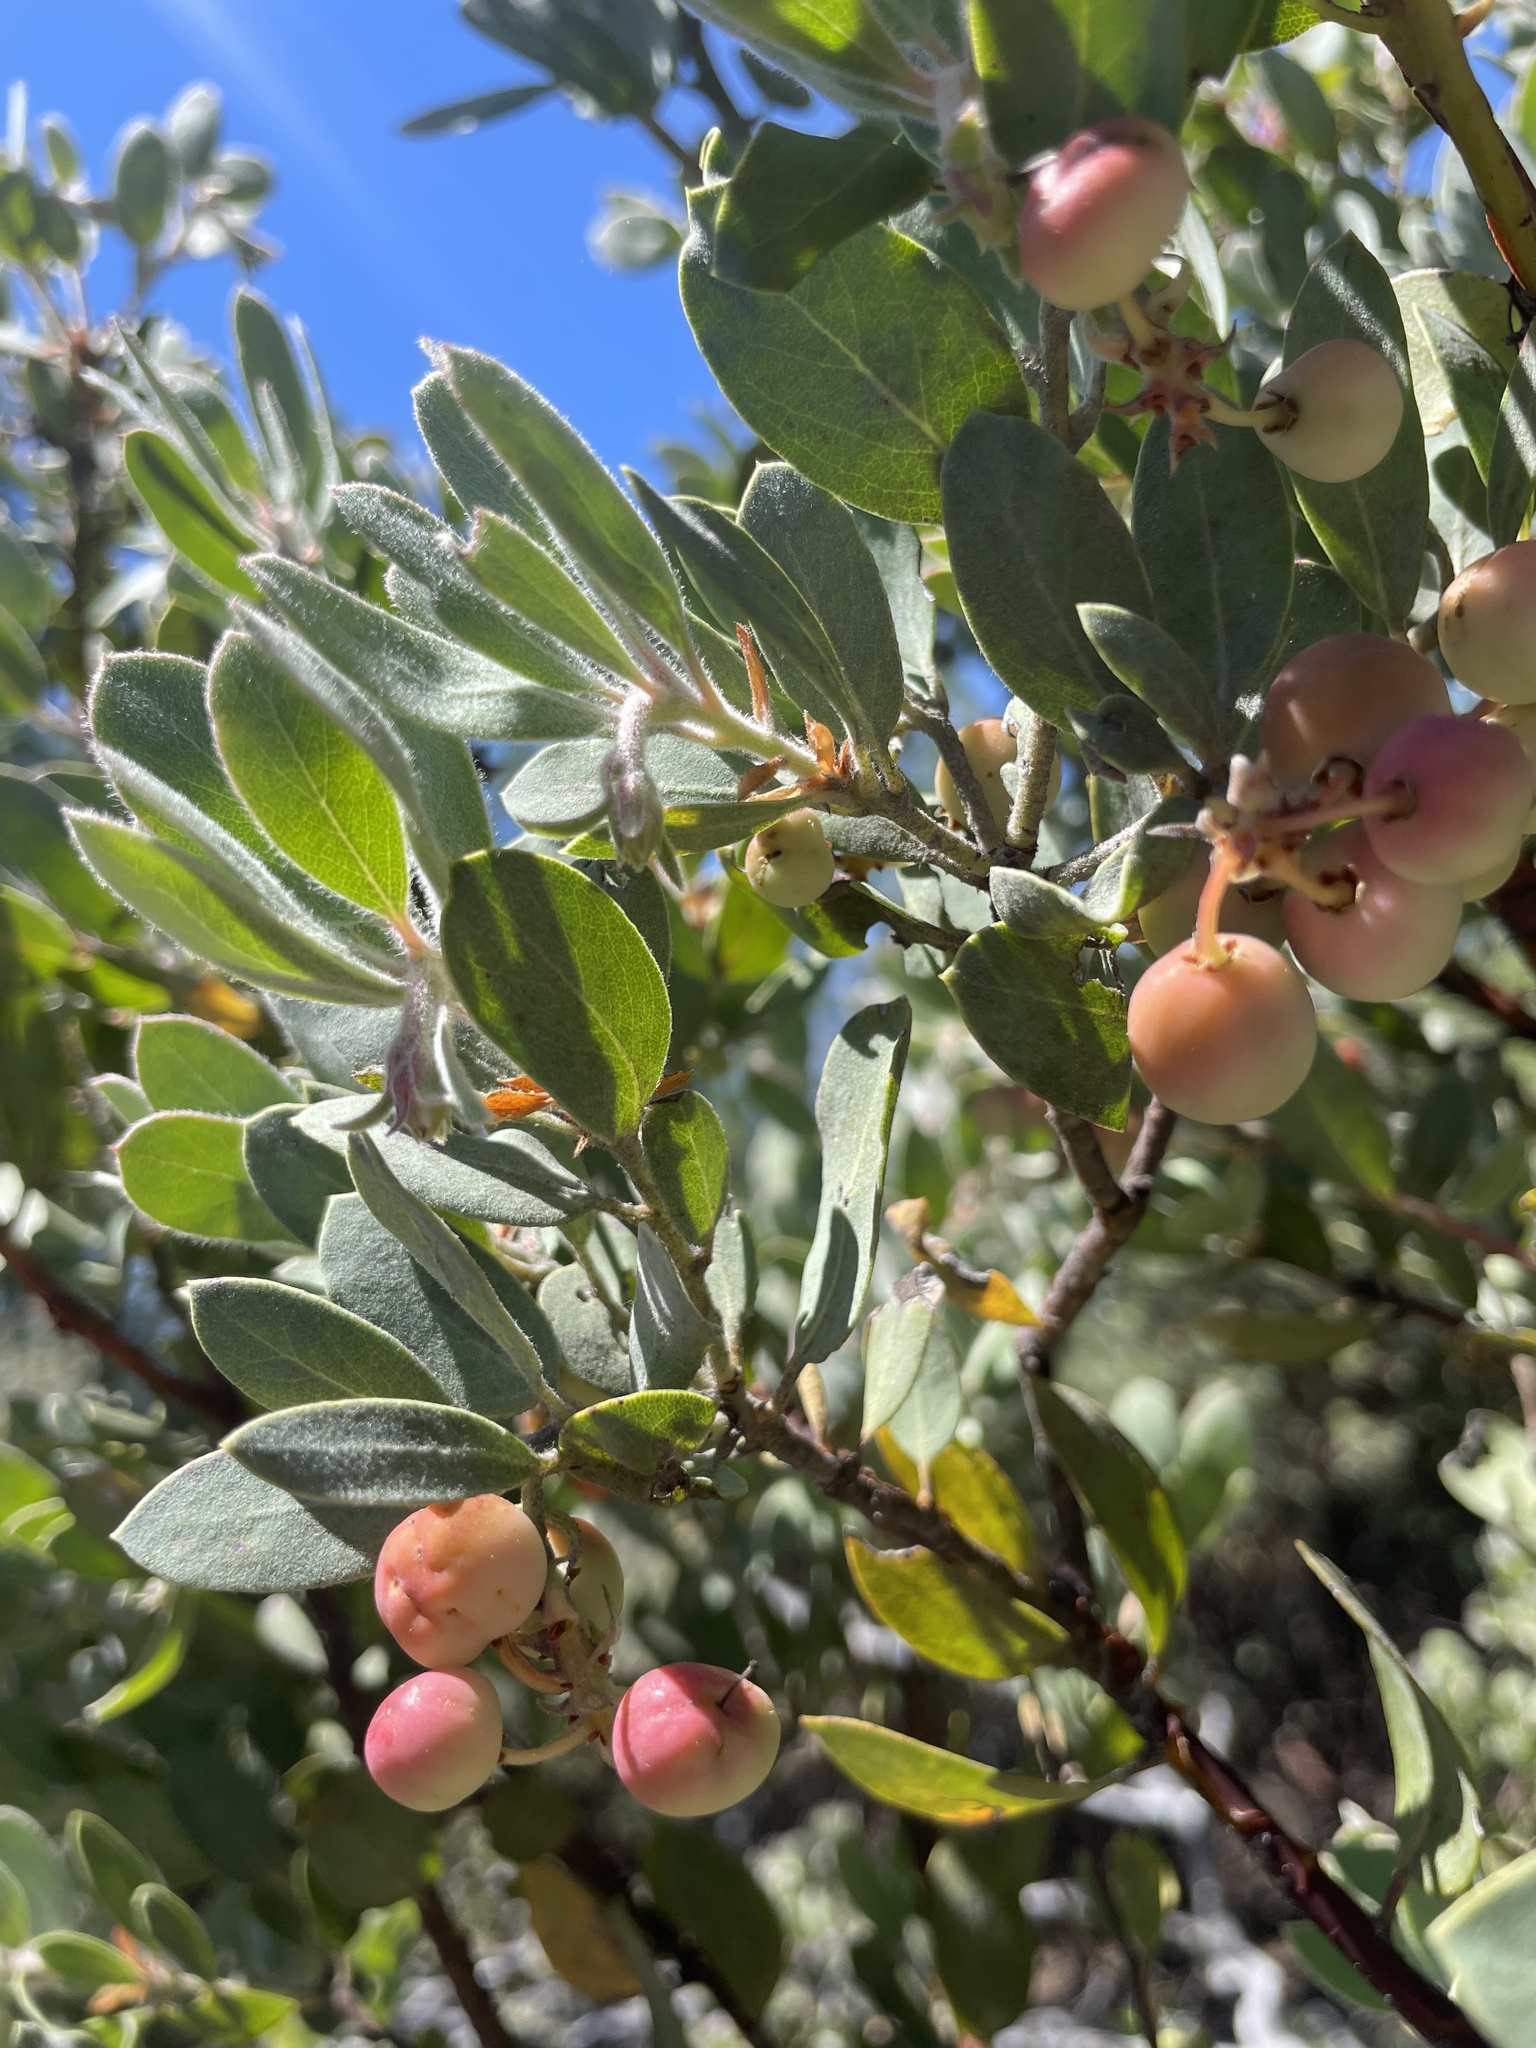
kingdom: Plantae
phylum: Tracheophyta
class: Magnoliopsida
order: Ericales
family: Ericaceae
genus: Arctostaphylos
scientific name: Arctostaphylos silvicola
